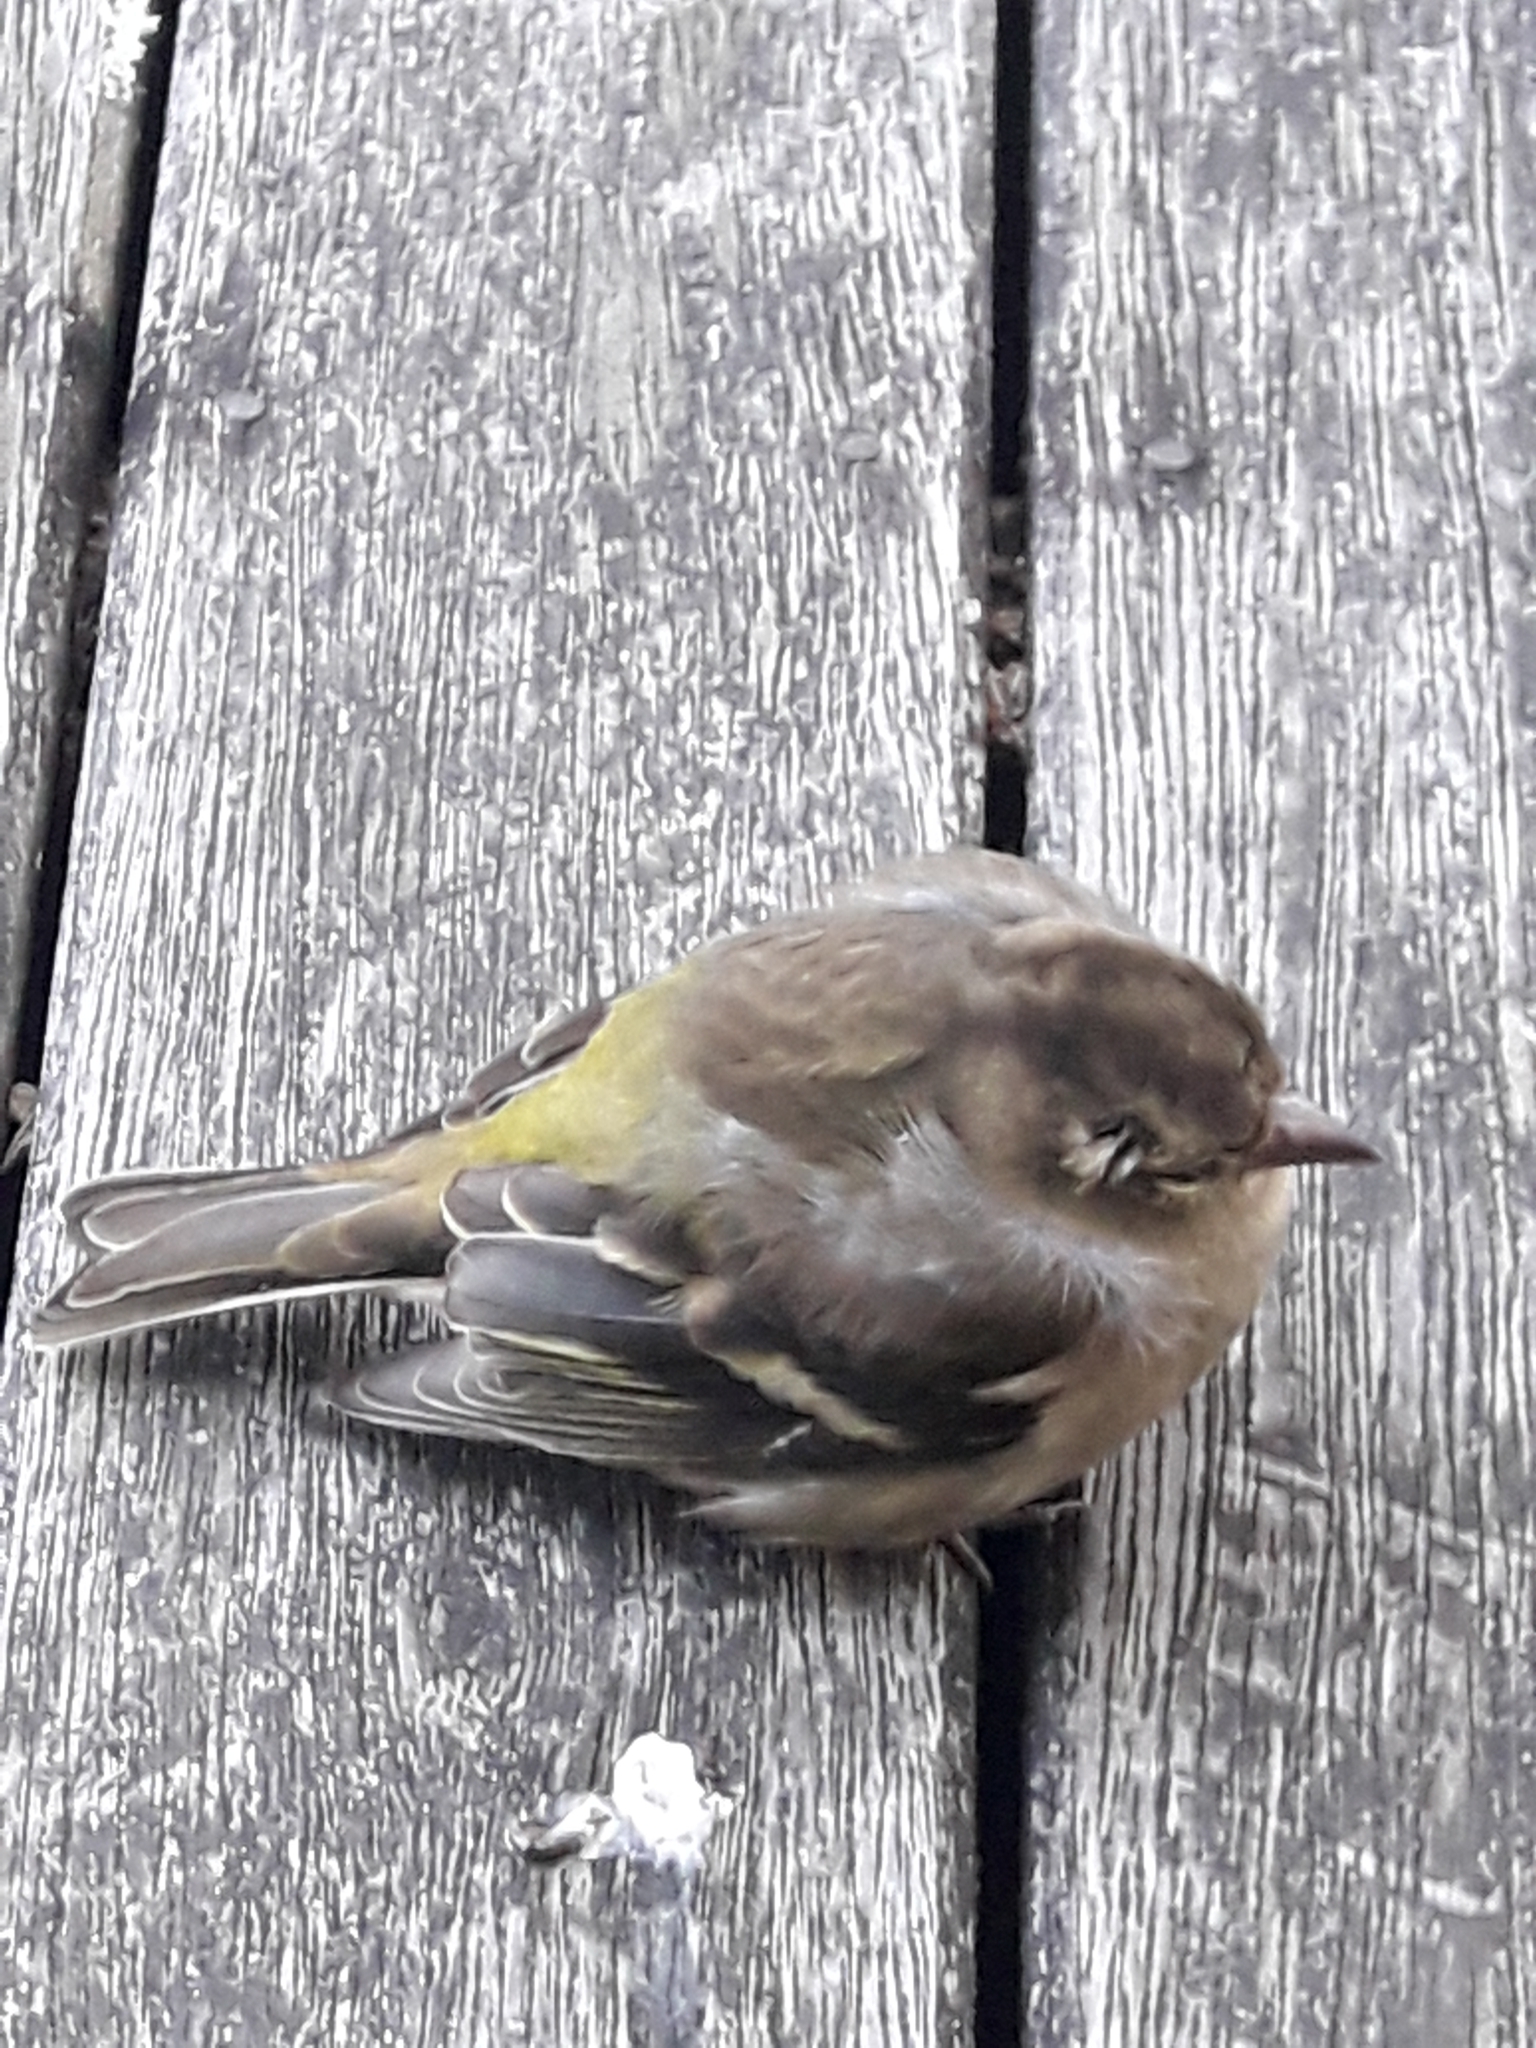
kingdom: Animalia
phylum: Chordata
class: Aves
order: Passeriformes
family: Fringillidae
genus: Fringilla
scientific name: Fringilla coelebs
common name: Common chaffinch
